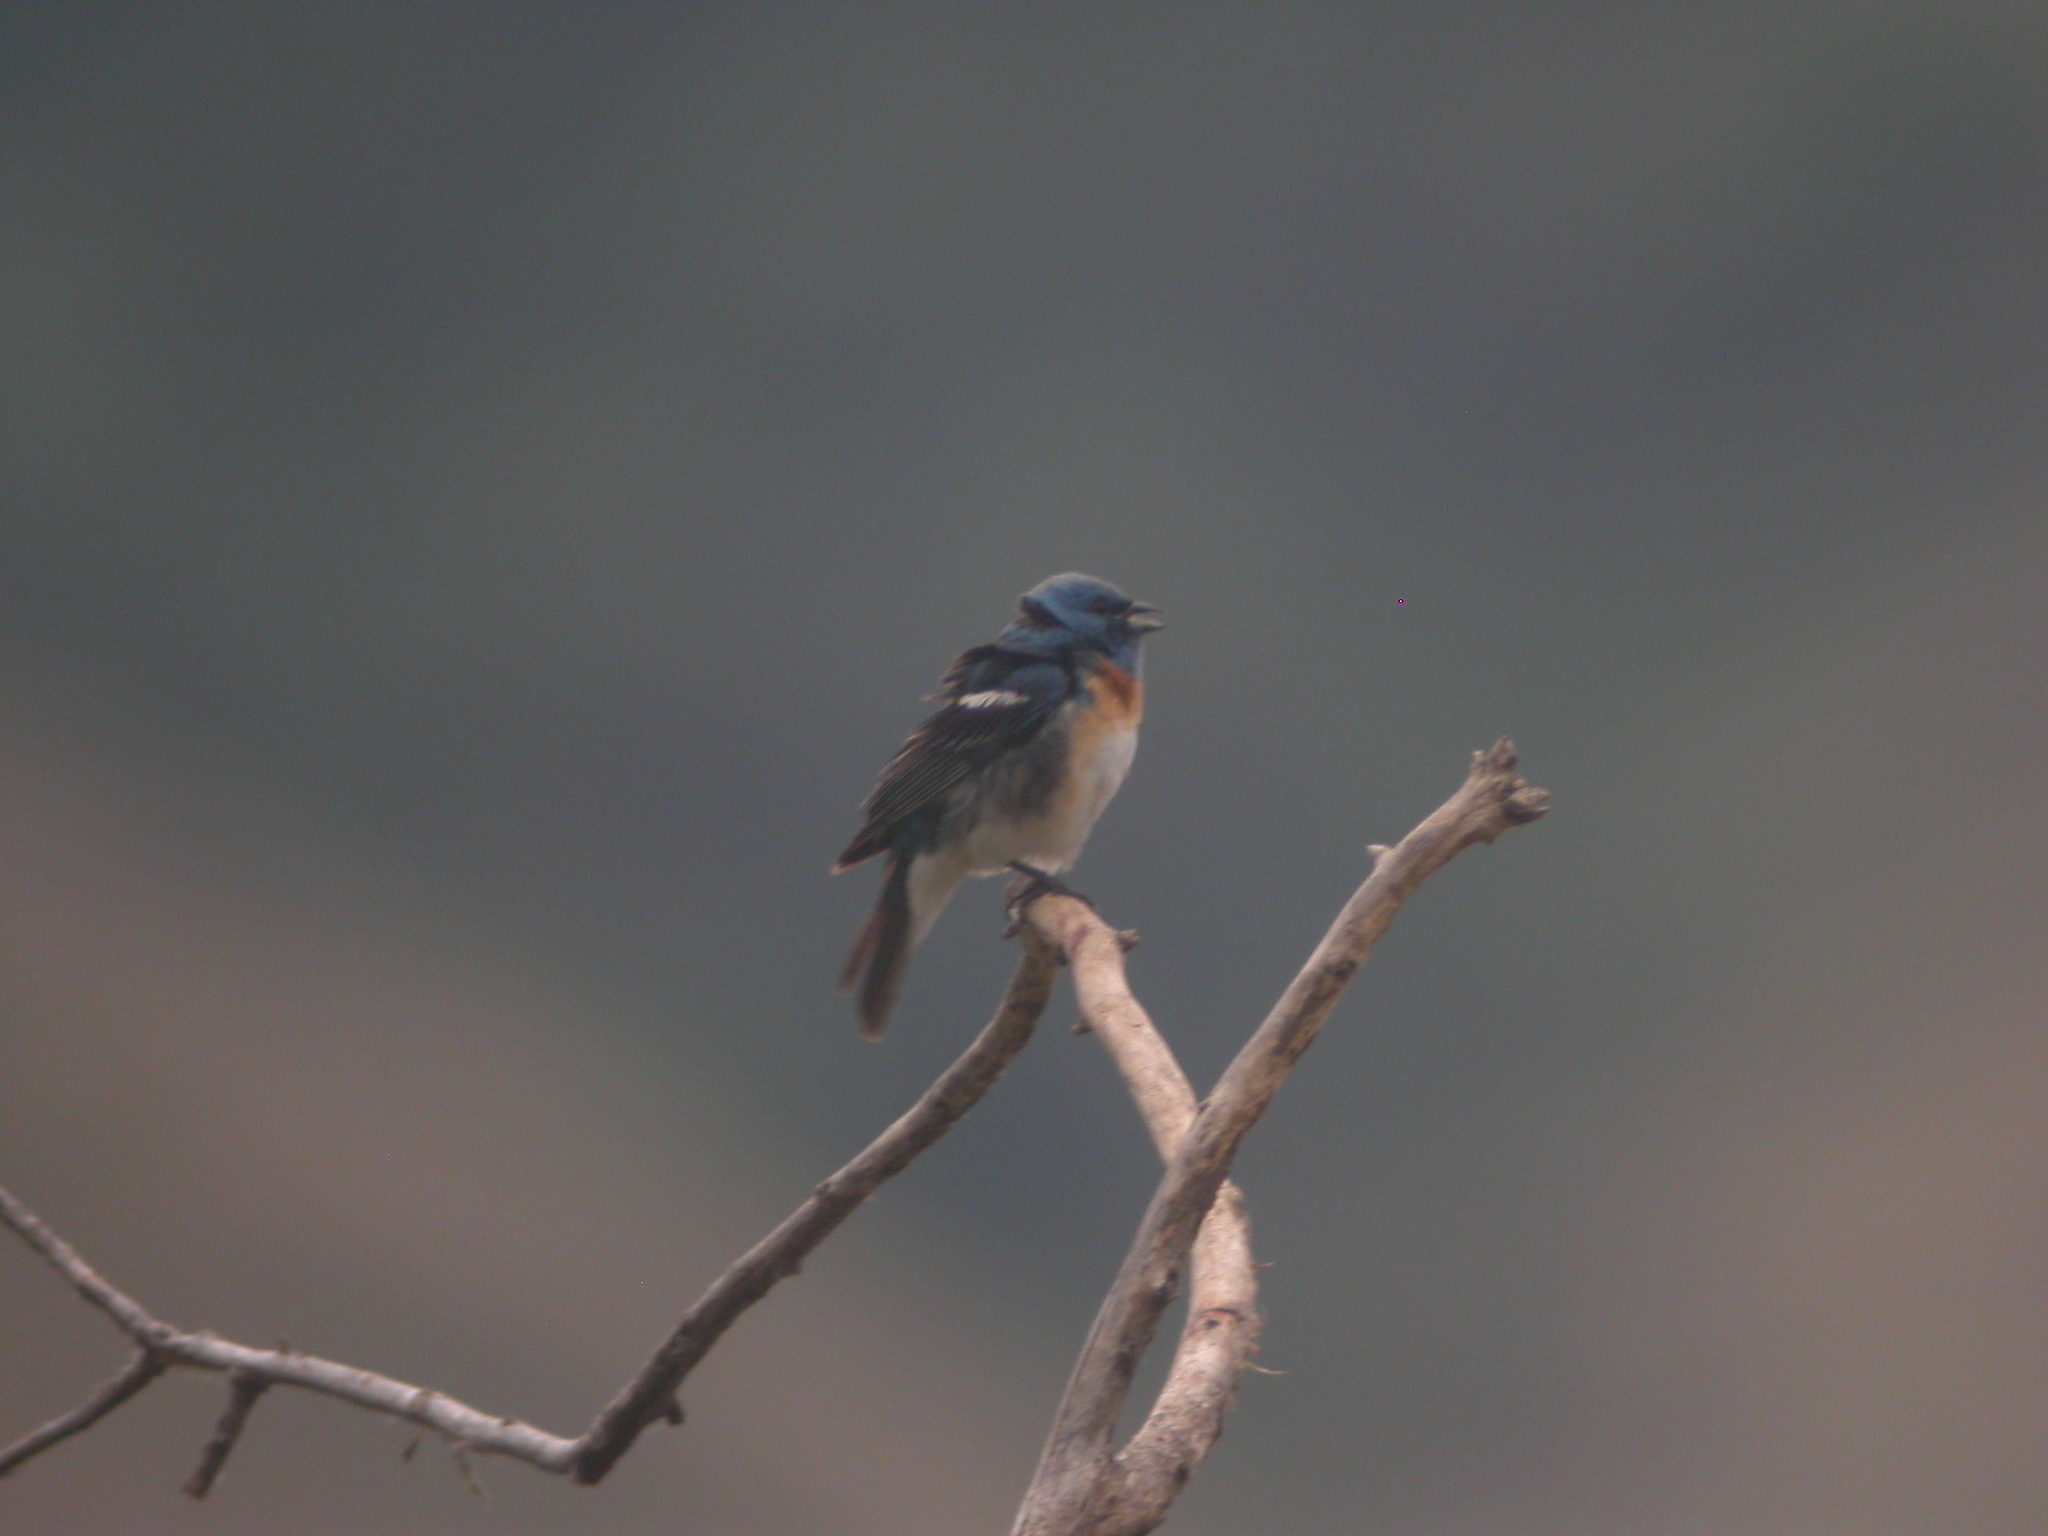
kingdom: Animalia
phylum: Chordata
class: Aves
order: Passeriformes
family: Cardinalidae
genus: Passerina
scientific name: Passerina amoena
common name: Lazuli bunting
